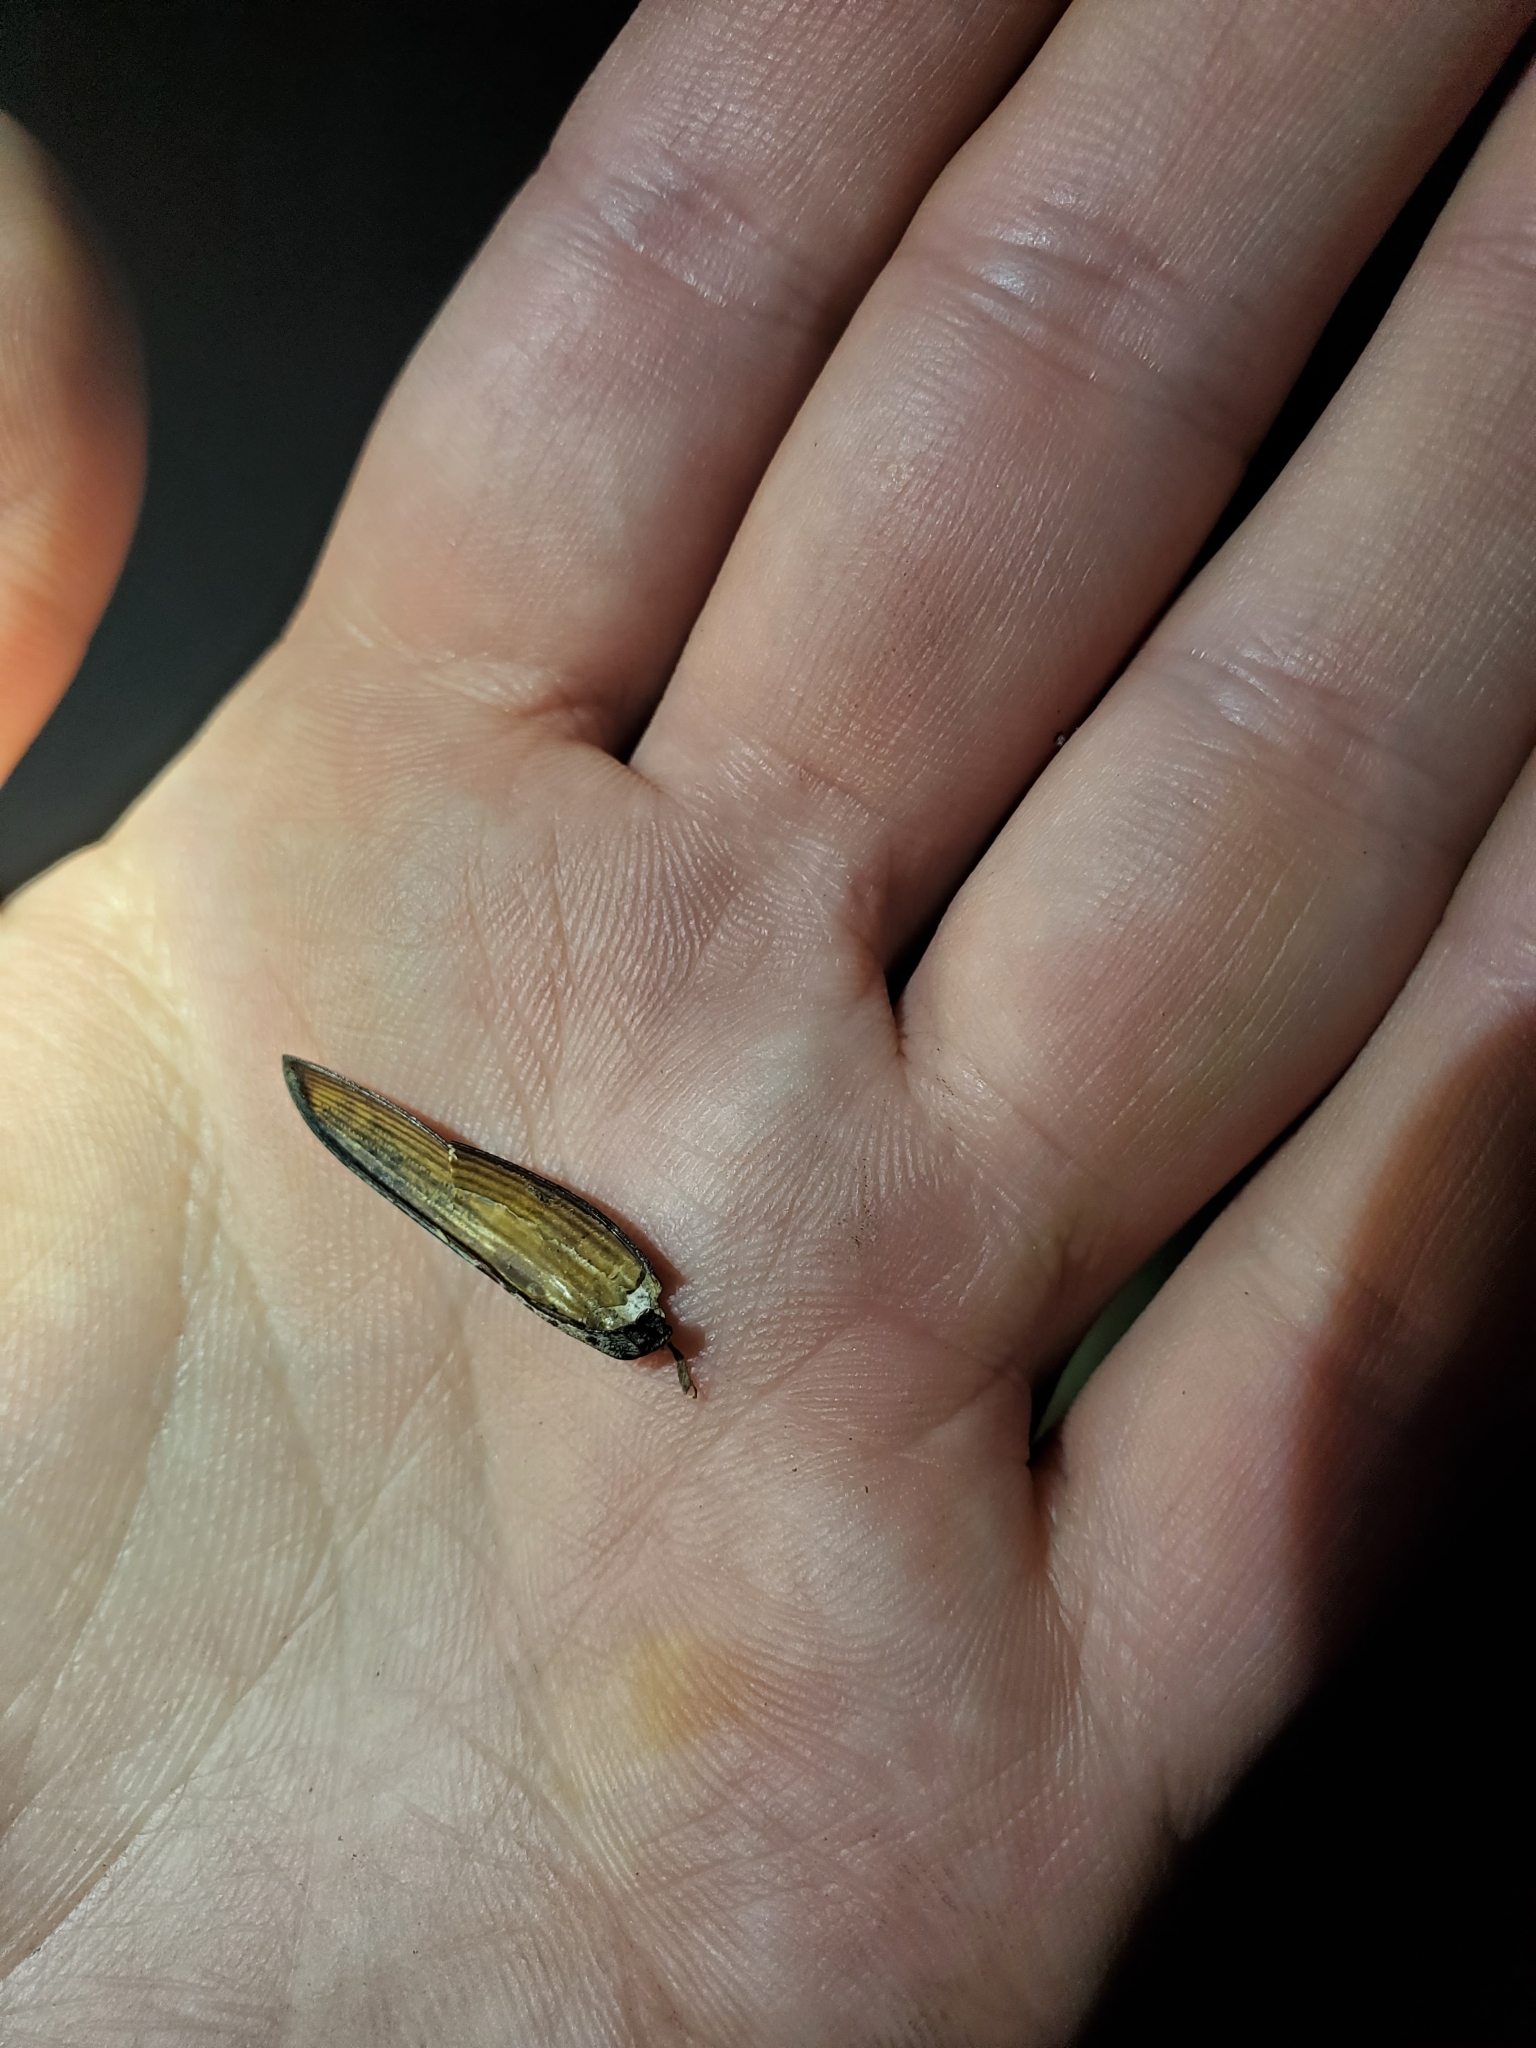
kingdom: Animalia
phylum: Arthropoda
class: Insecta
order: Coleoptera
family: Elateridae
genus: Alaus
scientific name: Alaus oculatus
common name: Eastern eyed click beetle
